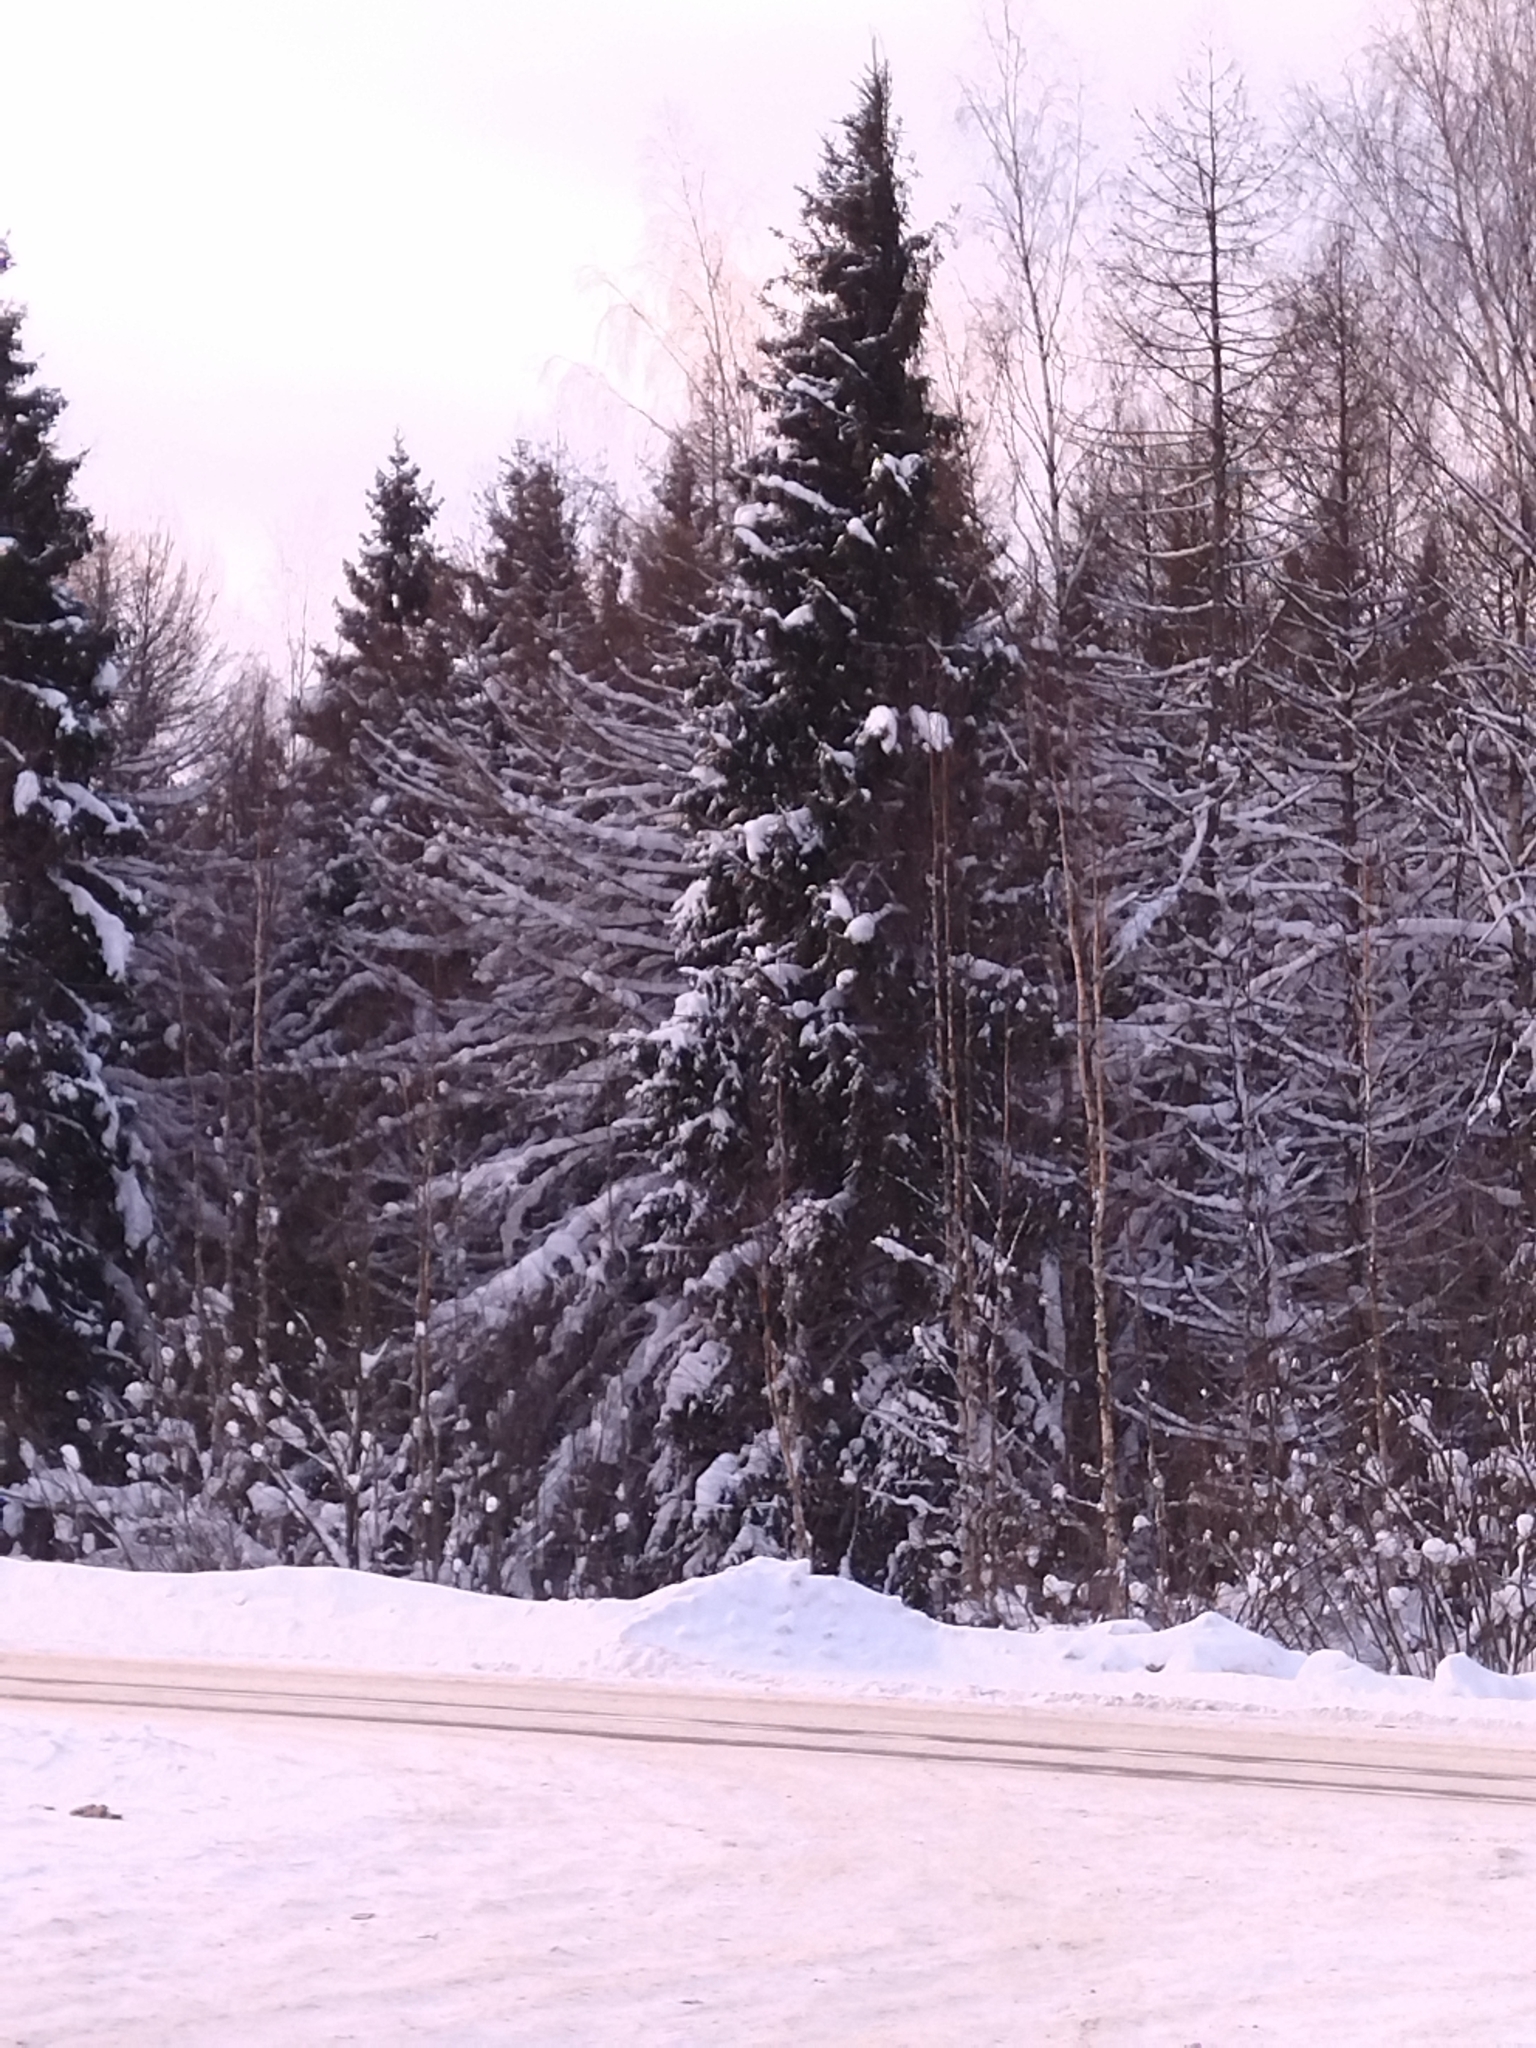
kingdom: Plantae
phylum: Tracheophyta
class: Pinopsida
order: Pinales
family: Pinaceae
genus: Picea
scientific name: Picea abies
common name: Norway spruce
